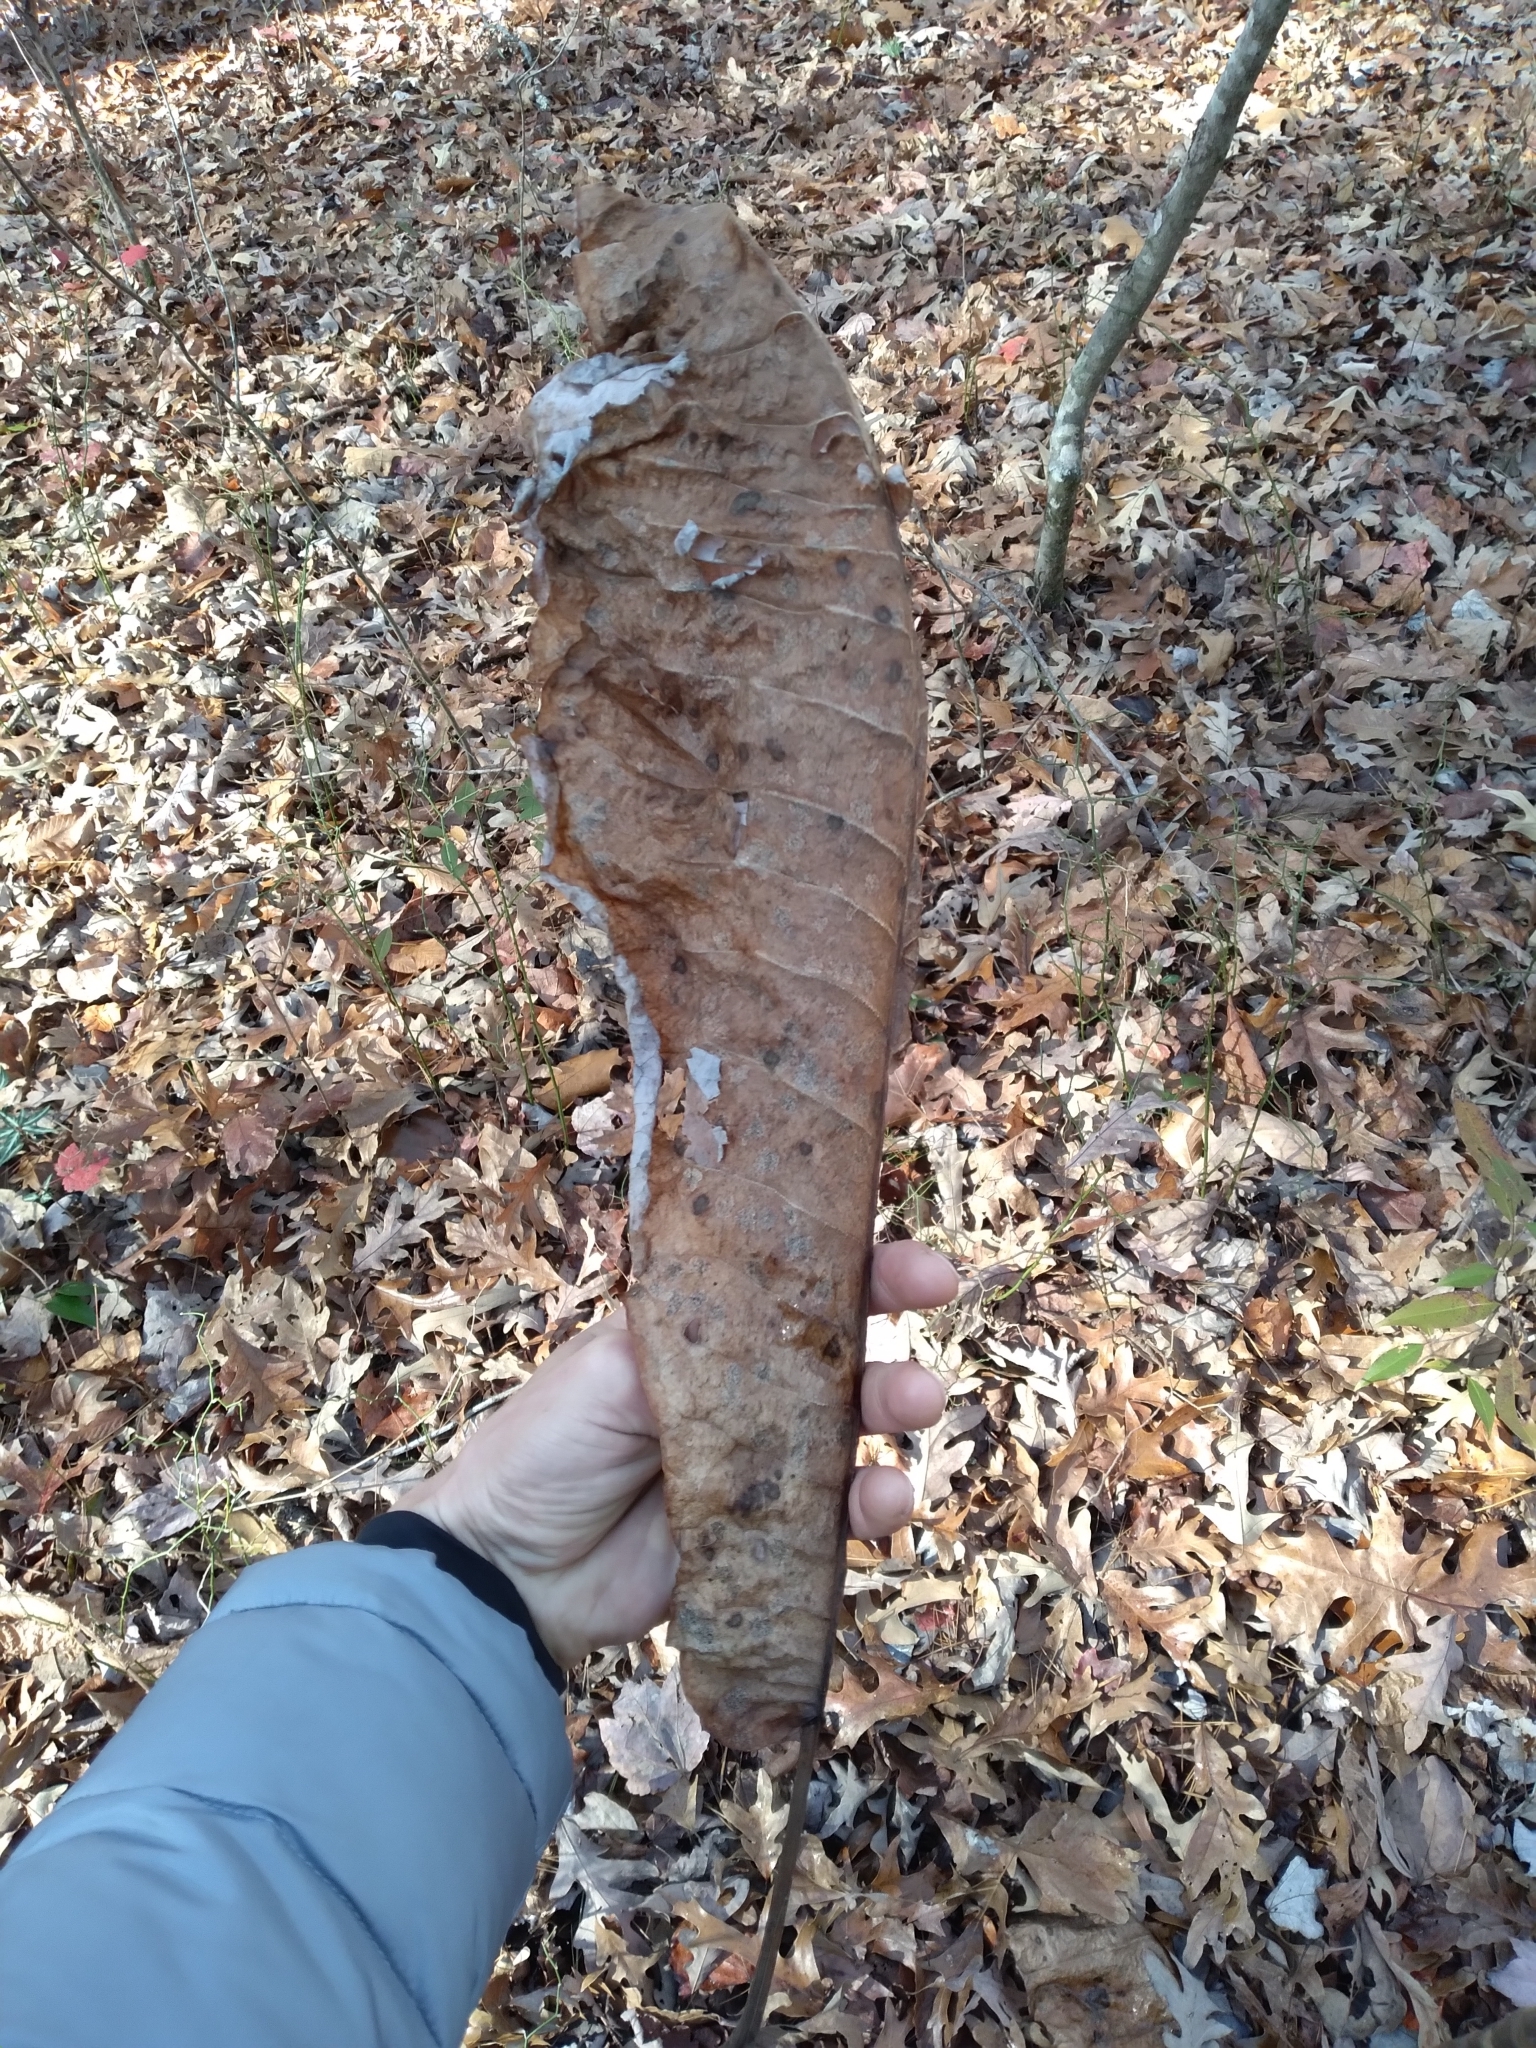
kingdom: Plantae
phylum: Tracheophyta
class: Magnoliopsida
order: Magnoliales
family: Magnoliaceae
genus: Magnolia
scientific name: Magnolia macrophylla
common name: Big-leaf magnolia
